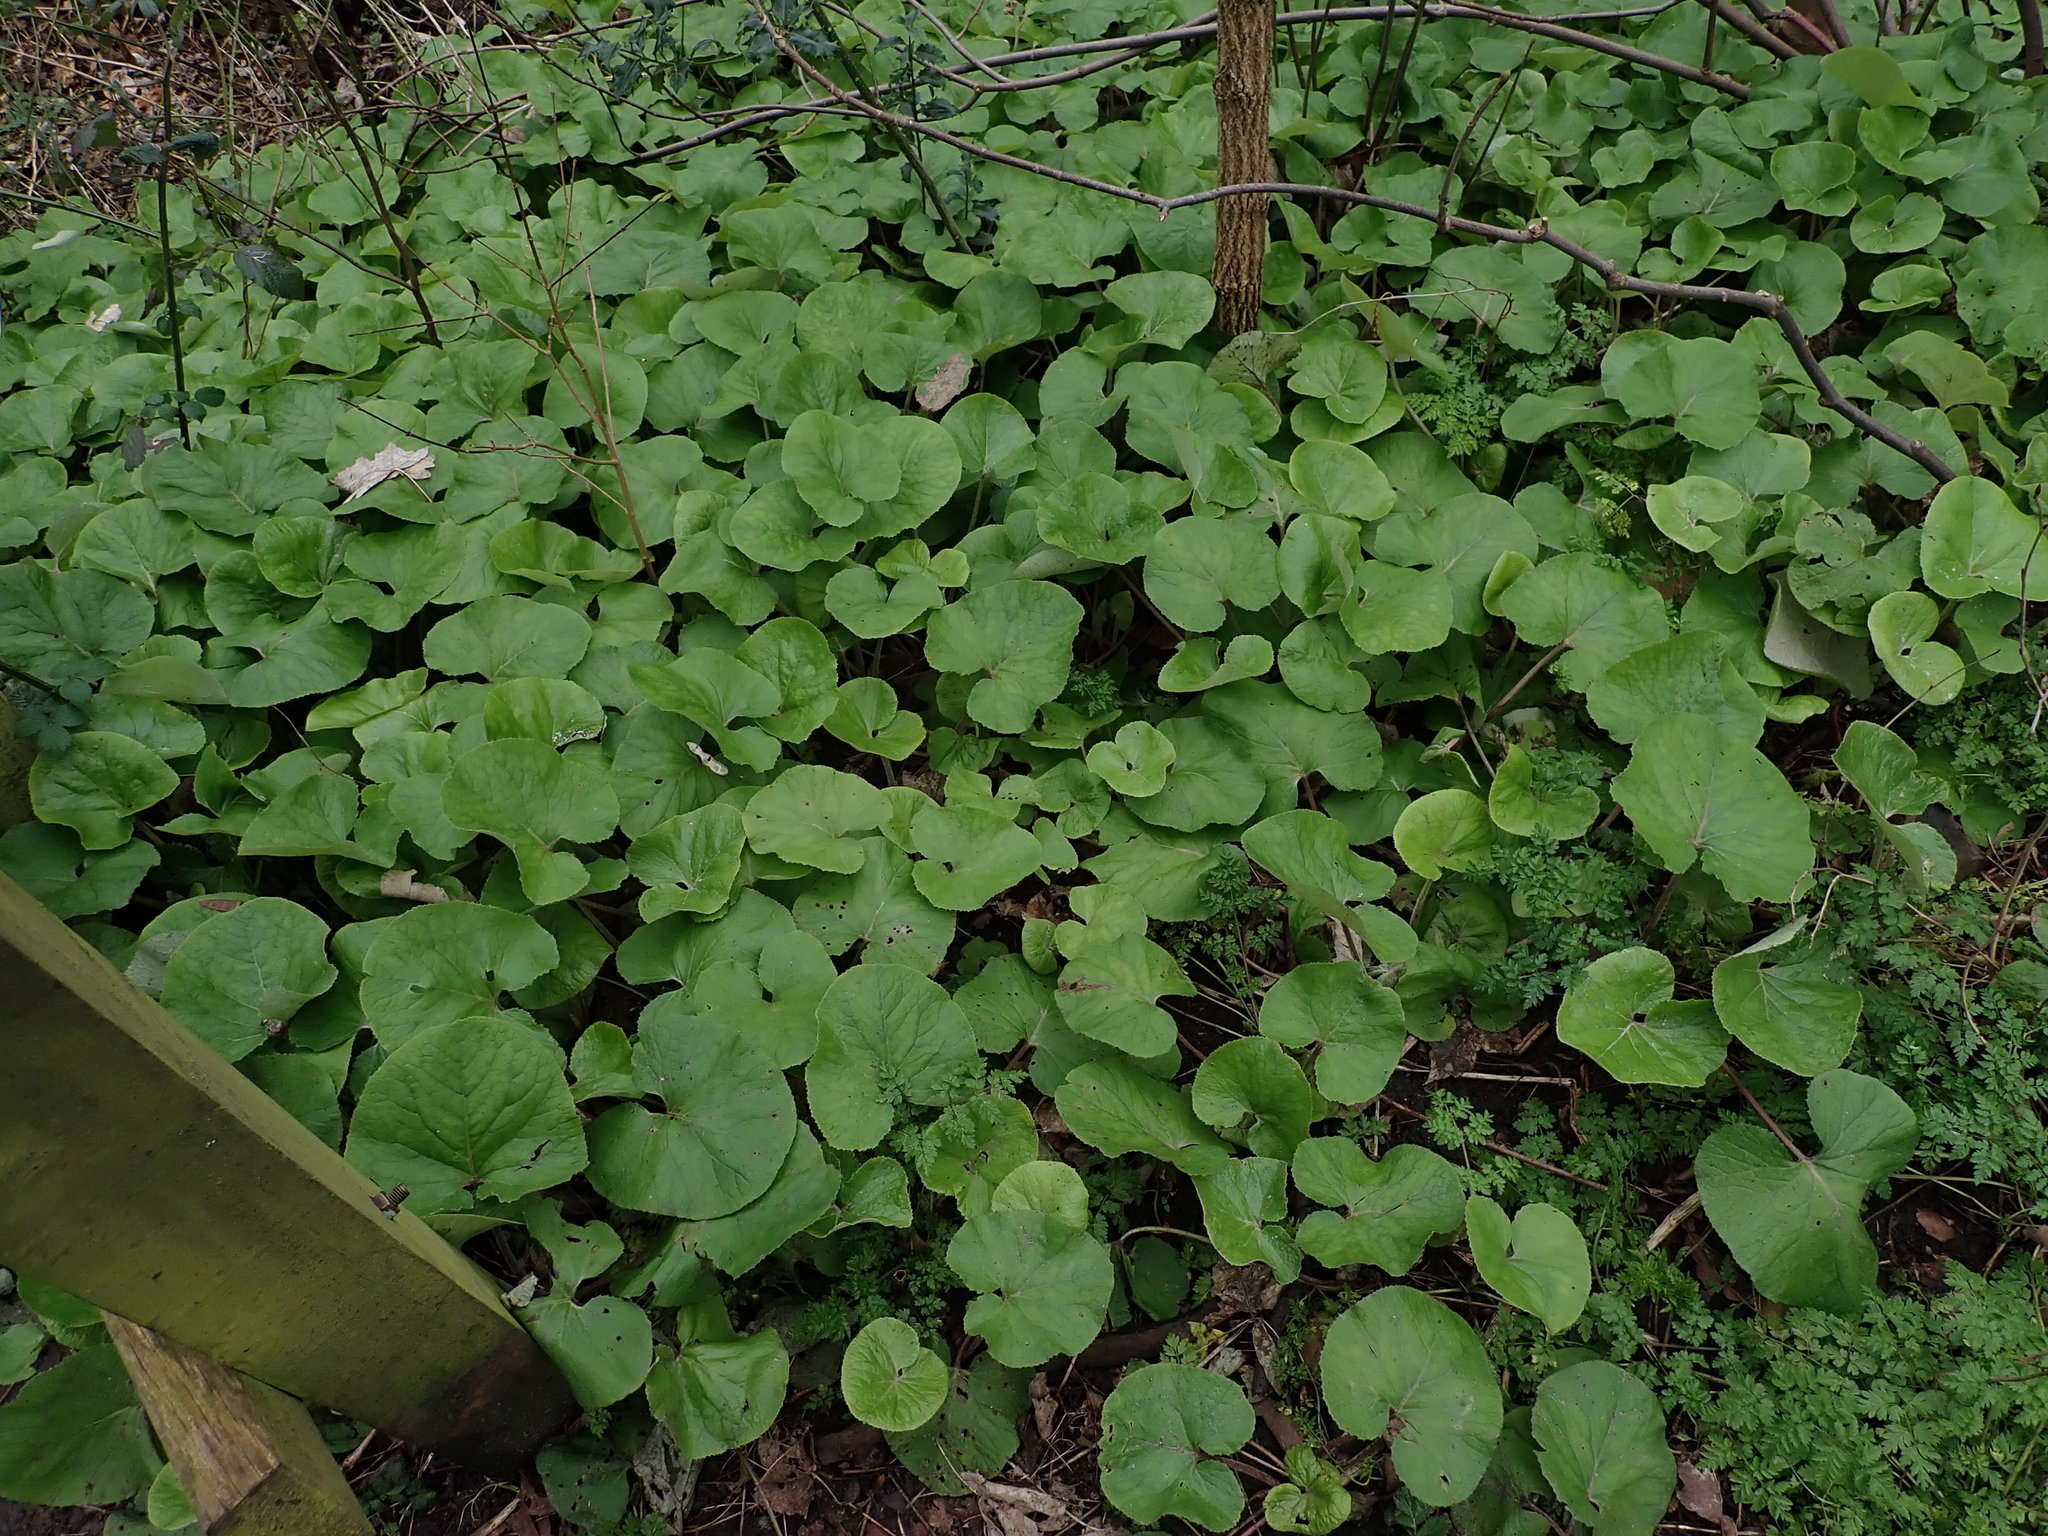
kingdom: Plantae
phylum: Tracheophyta
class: Magnoliopsida
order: Asterales
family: Asteraceae
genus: Petasites
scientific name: Petasites pyrenaicus
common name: Winter heliotrope
